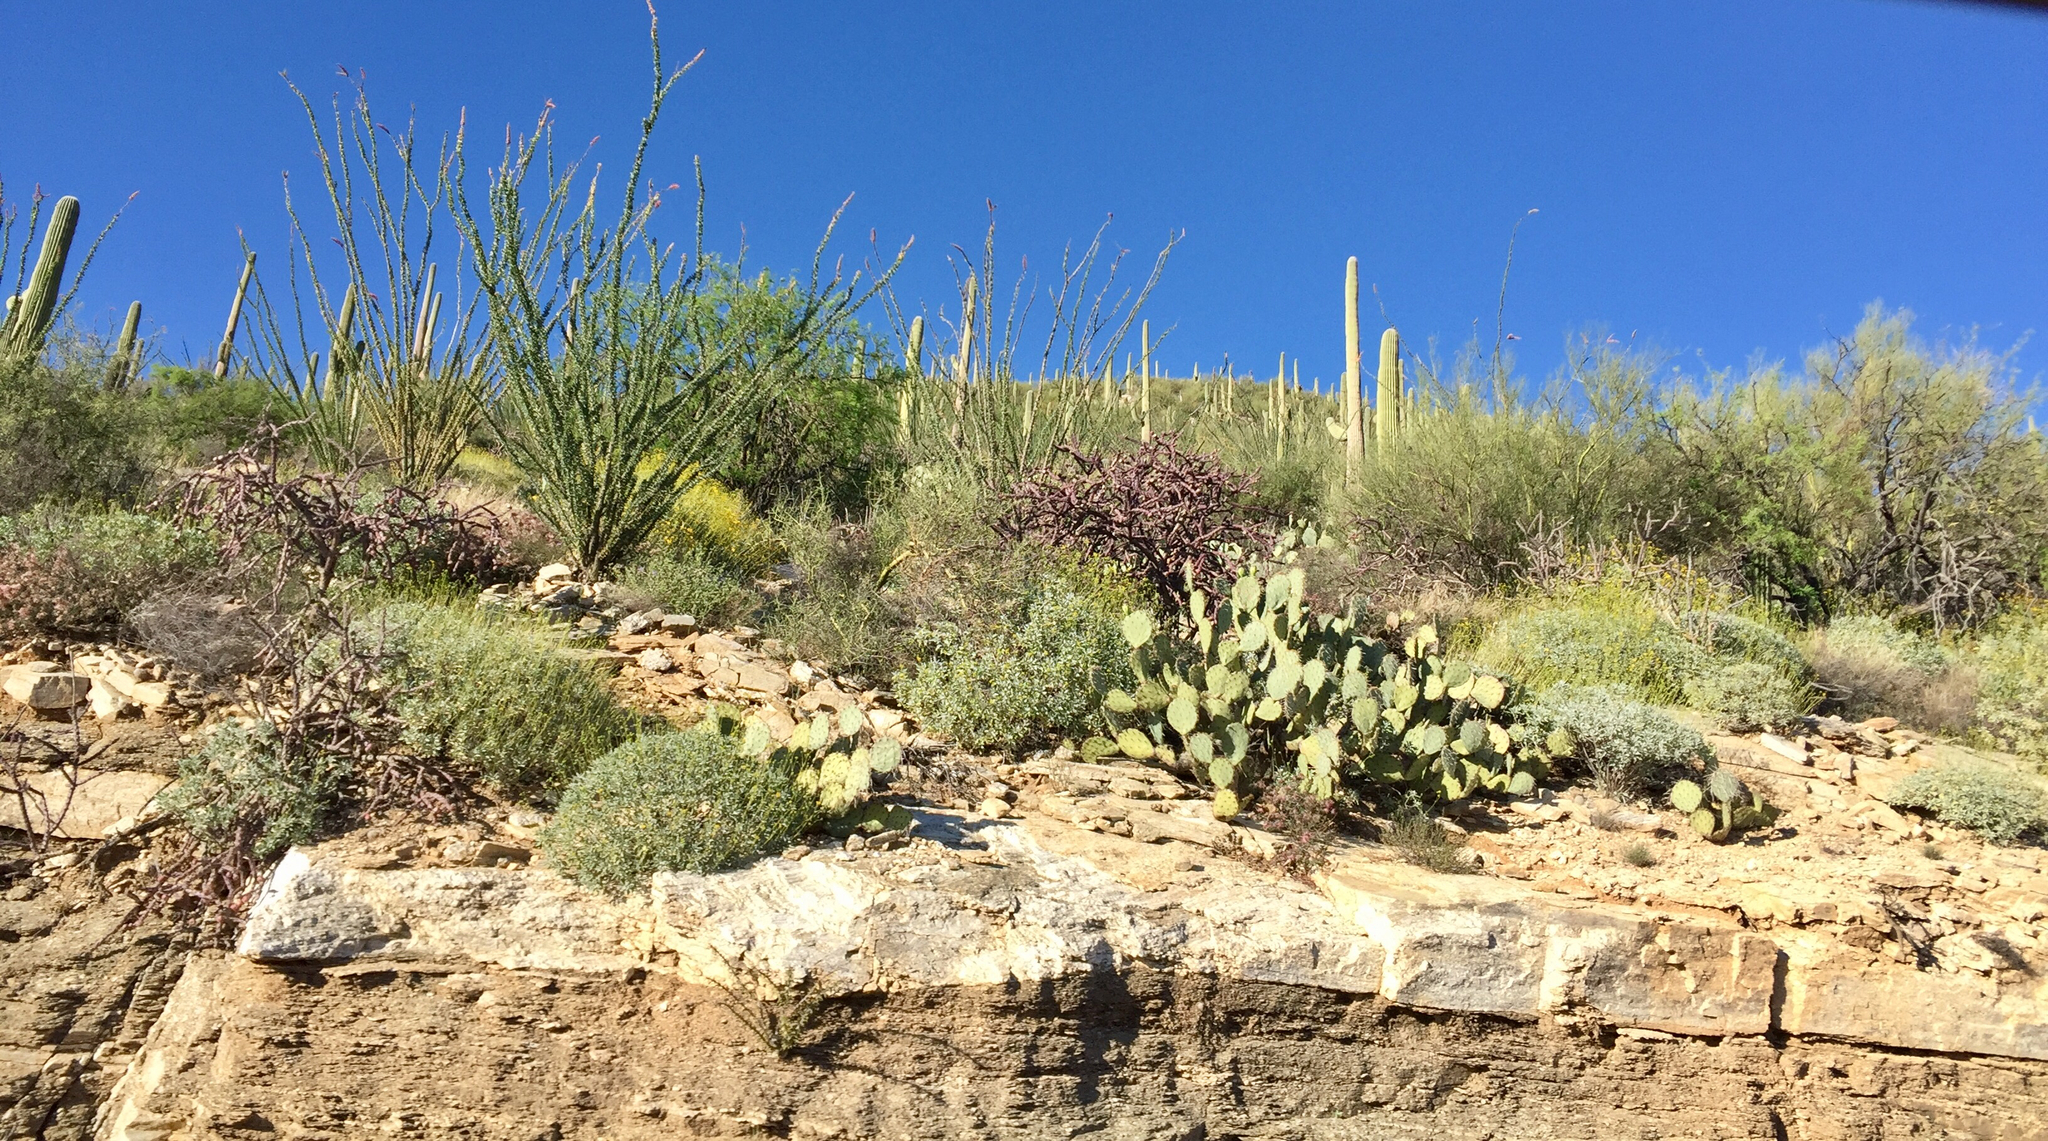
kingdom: Plantae
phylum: Tracheophyta
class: Magnoliopsida
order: Caryophyllales
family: Cactaceae
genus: Carnegiea
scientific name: Carnegiea gigantea
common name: Saguaro
